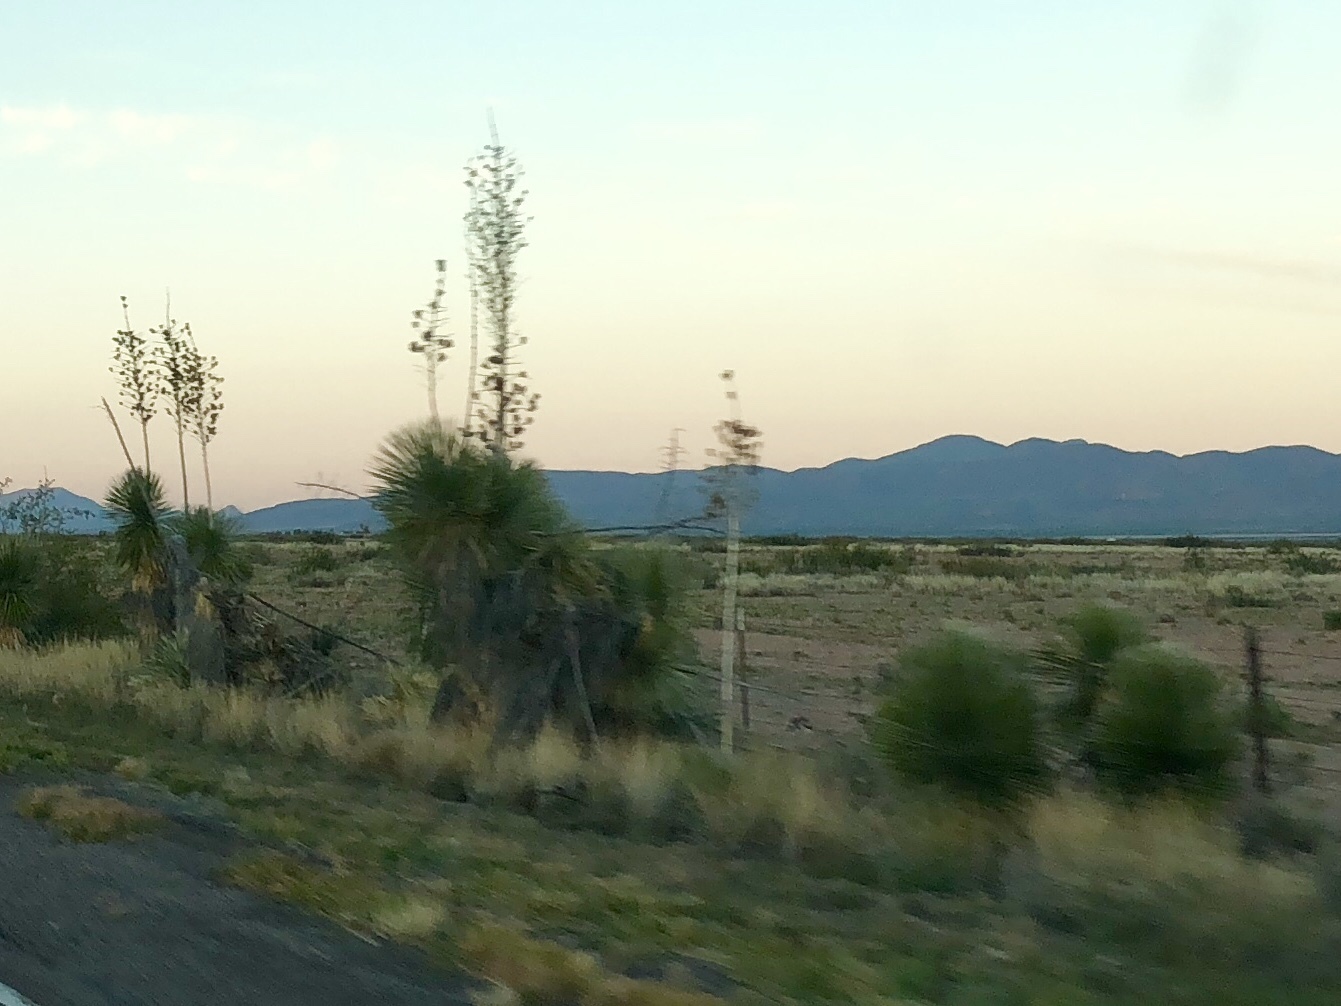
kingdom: Plantae
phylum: Tracheophyta
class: Liliopsida
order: Asparagales
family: Asparagaceae
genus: Yucca
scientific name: Yucca elata
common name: Palmella
